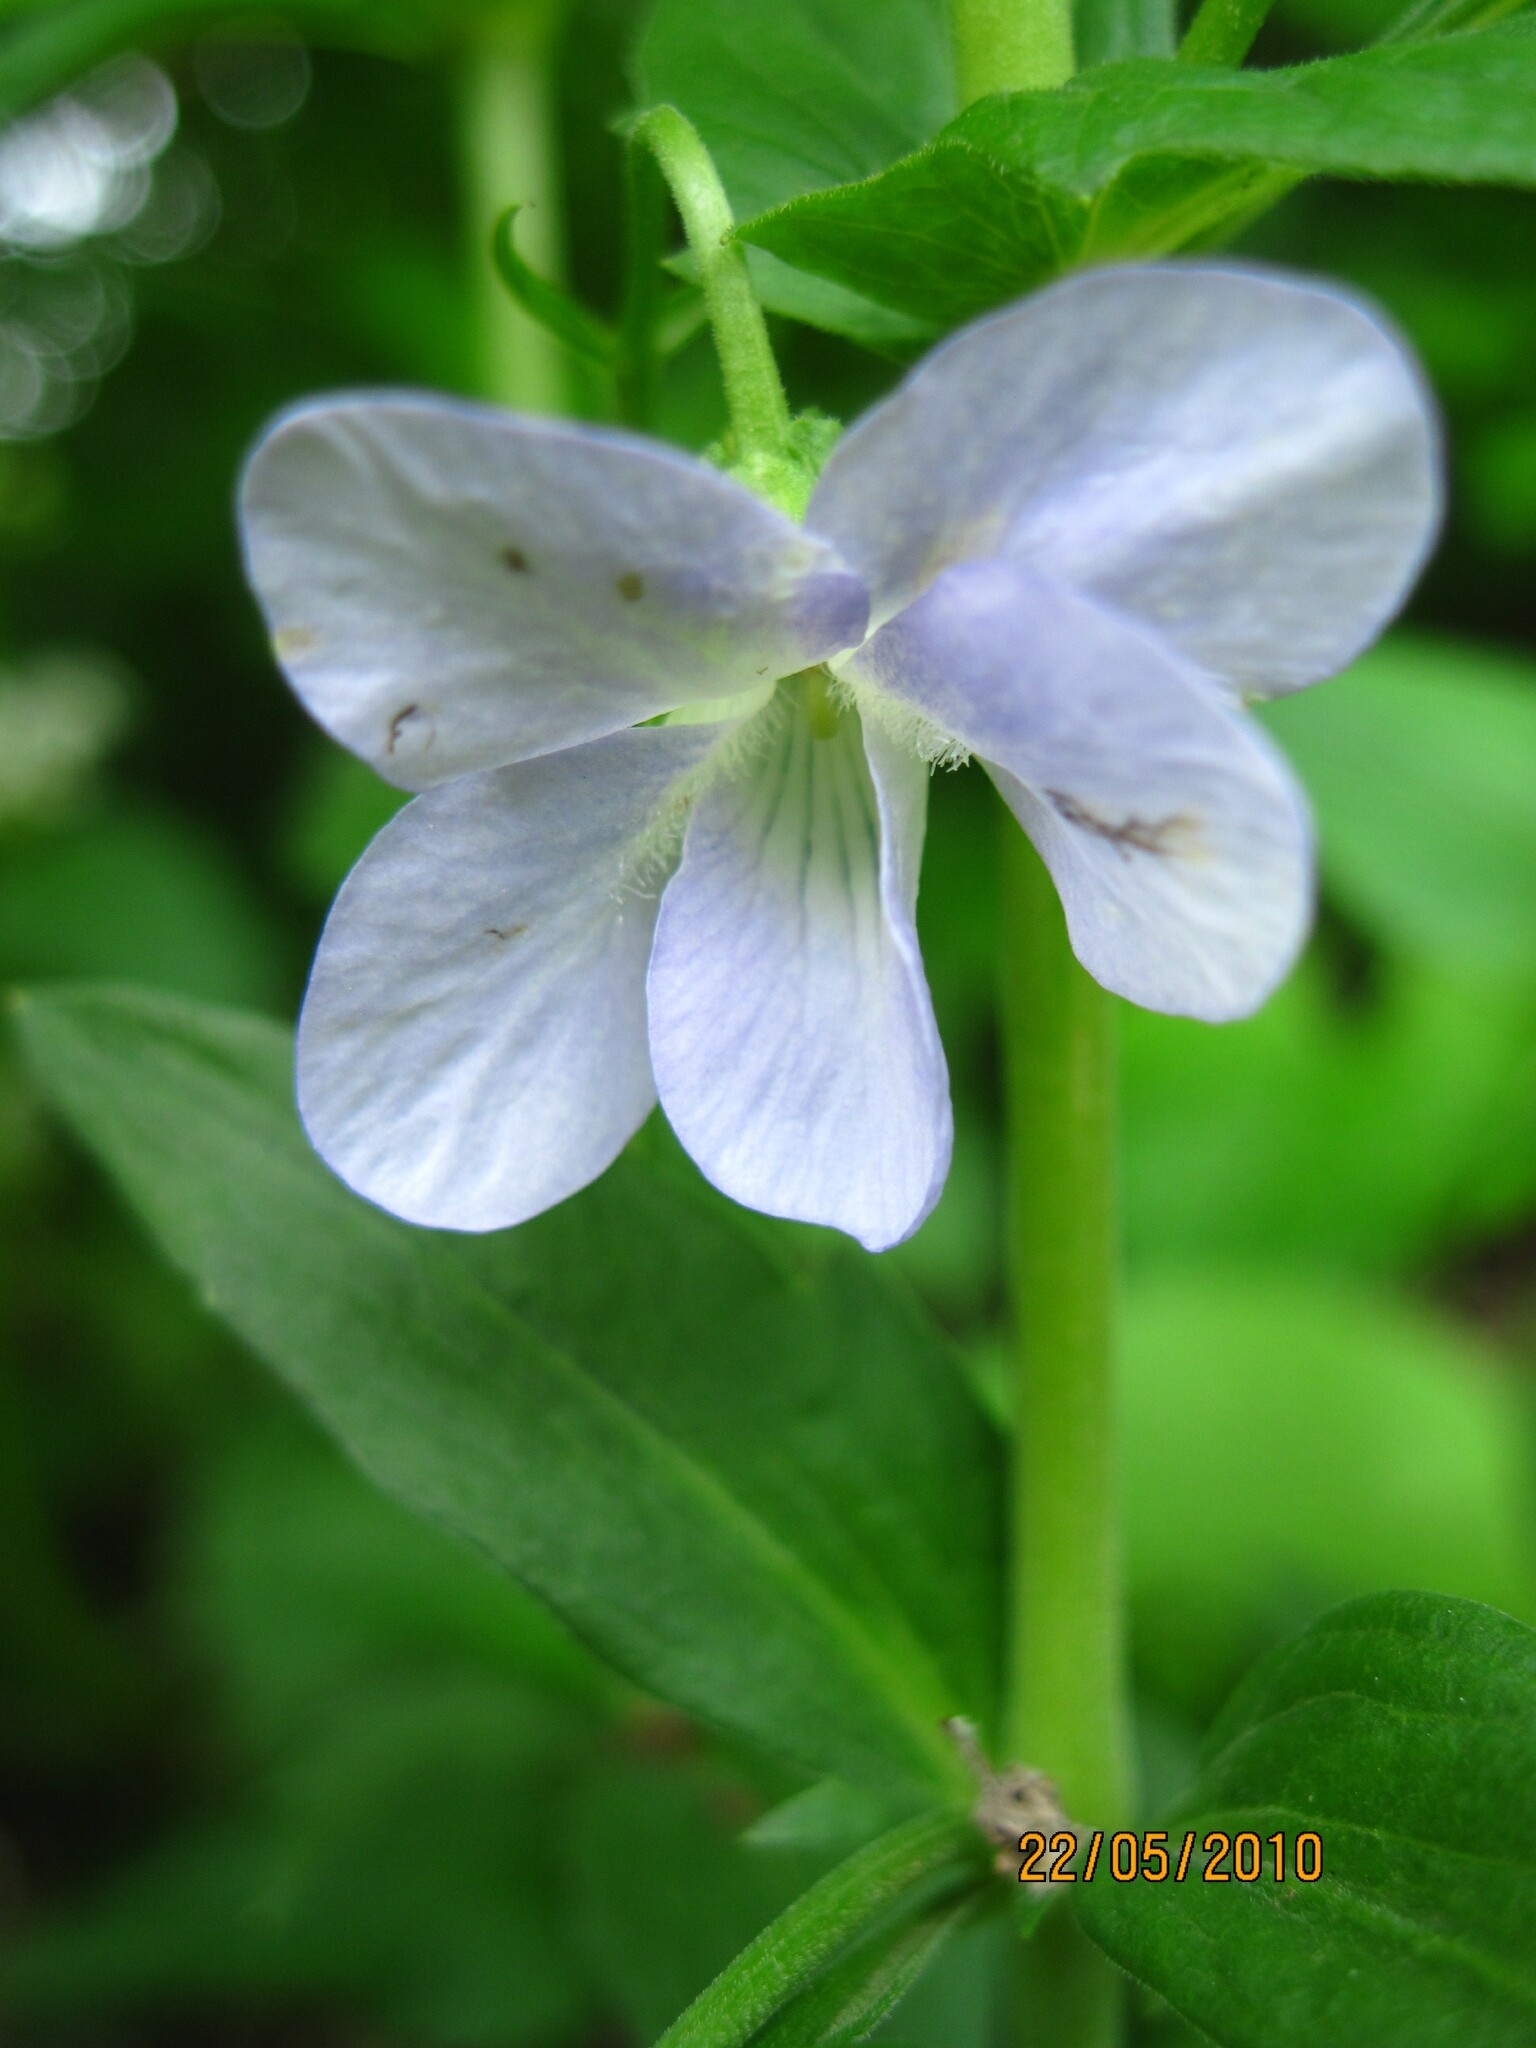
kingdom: Plantae
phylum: Tracheophyta
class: Magnoliopsida
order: Malpighiales
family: Violaceae
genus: Viola
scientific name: Viola elatior
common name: Tall violet
